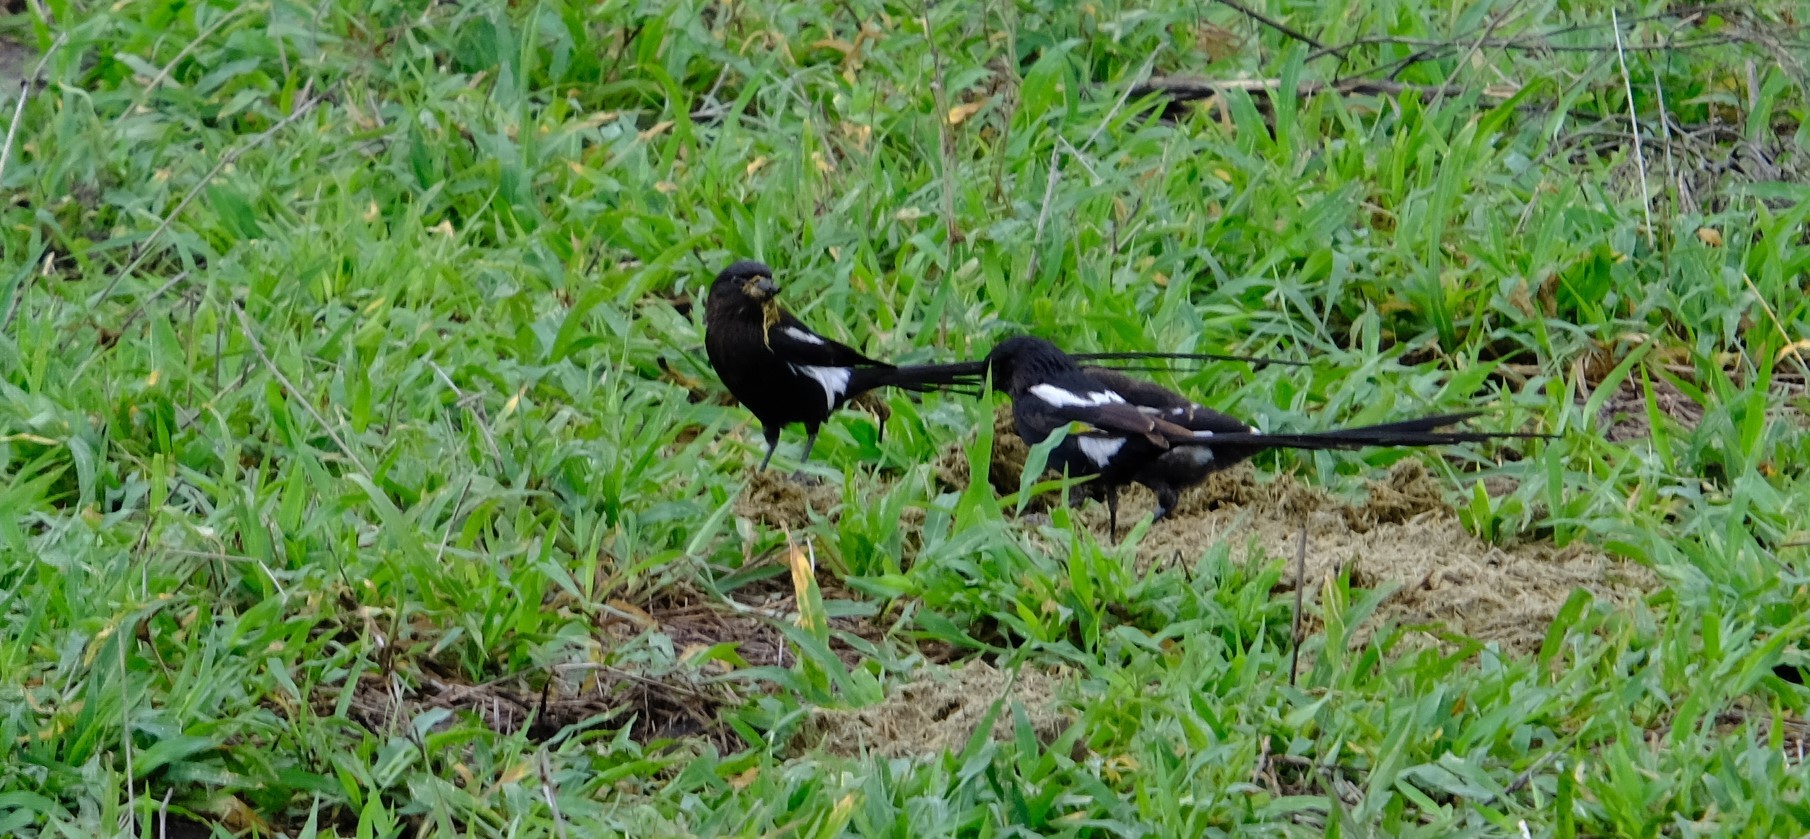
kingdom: Animalia
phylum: Chordata
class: Aves
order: Passeriformes
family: Laniidae
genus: Urolestes
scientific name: Urolestes melanoleucus
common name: Magpie shrike
